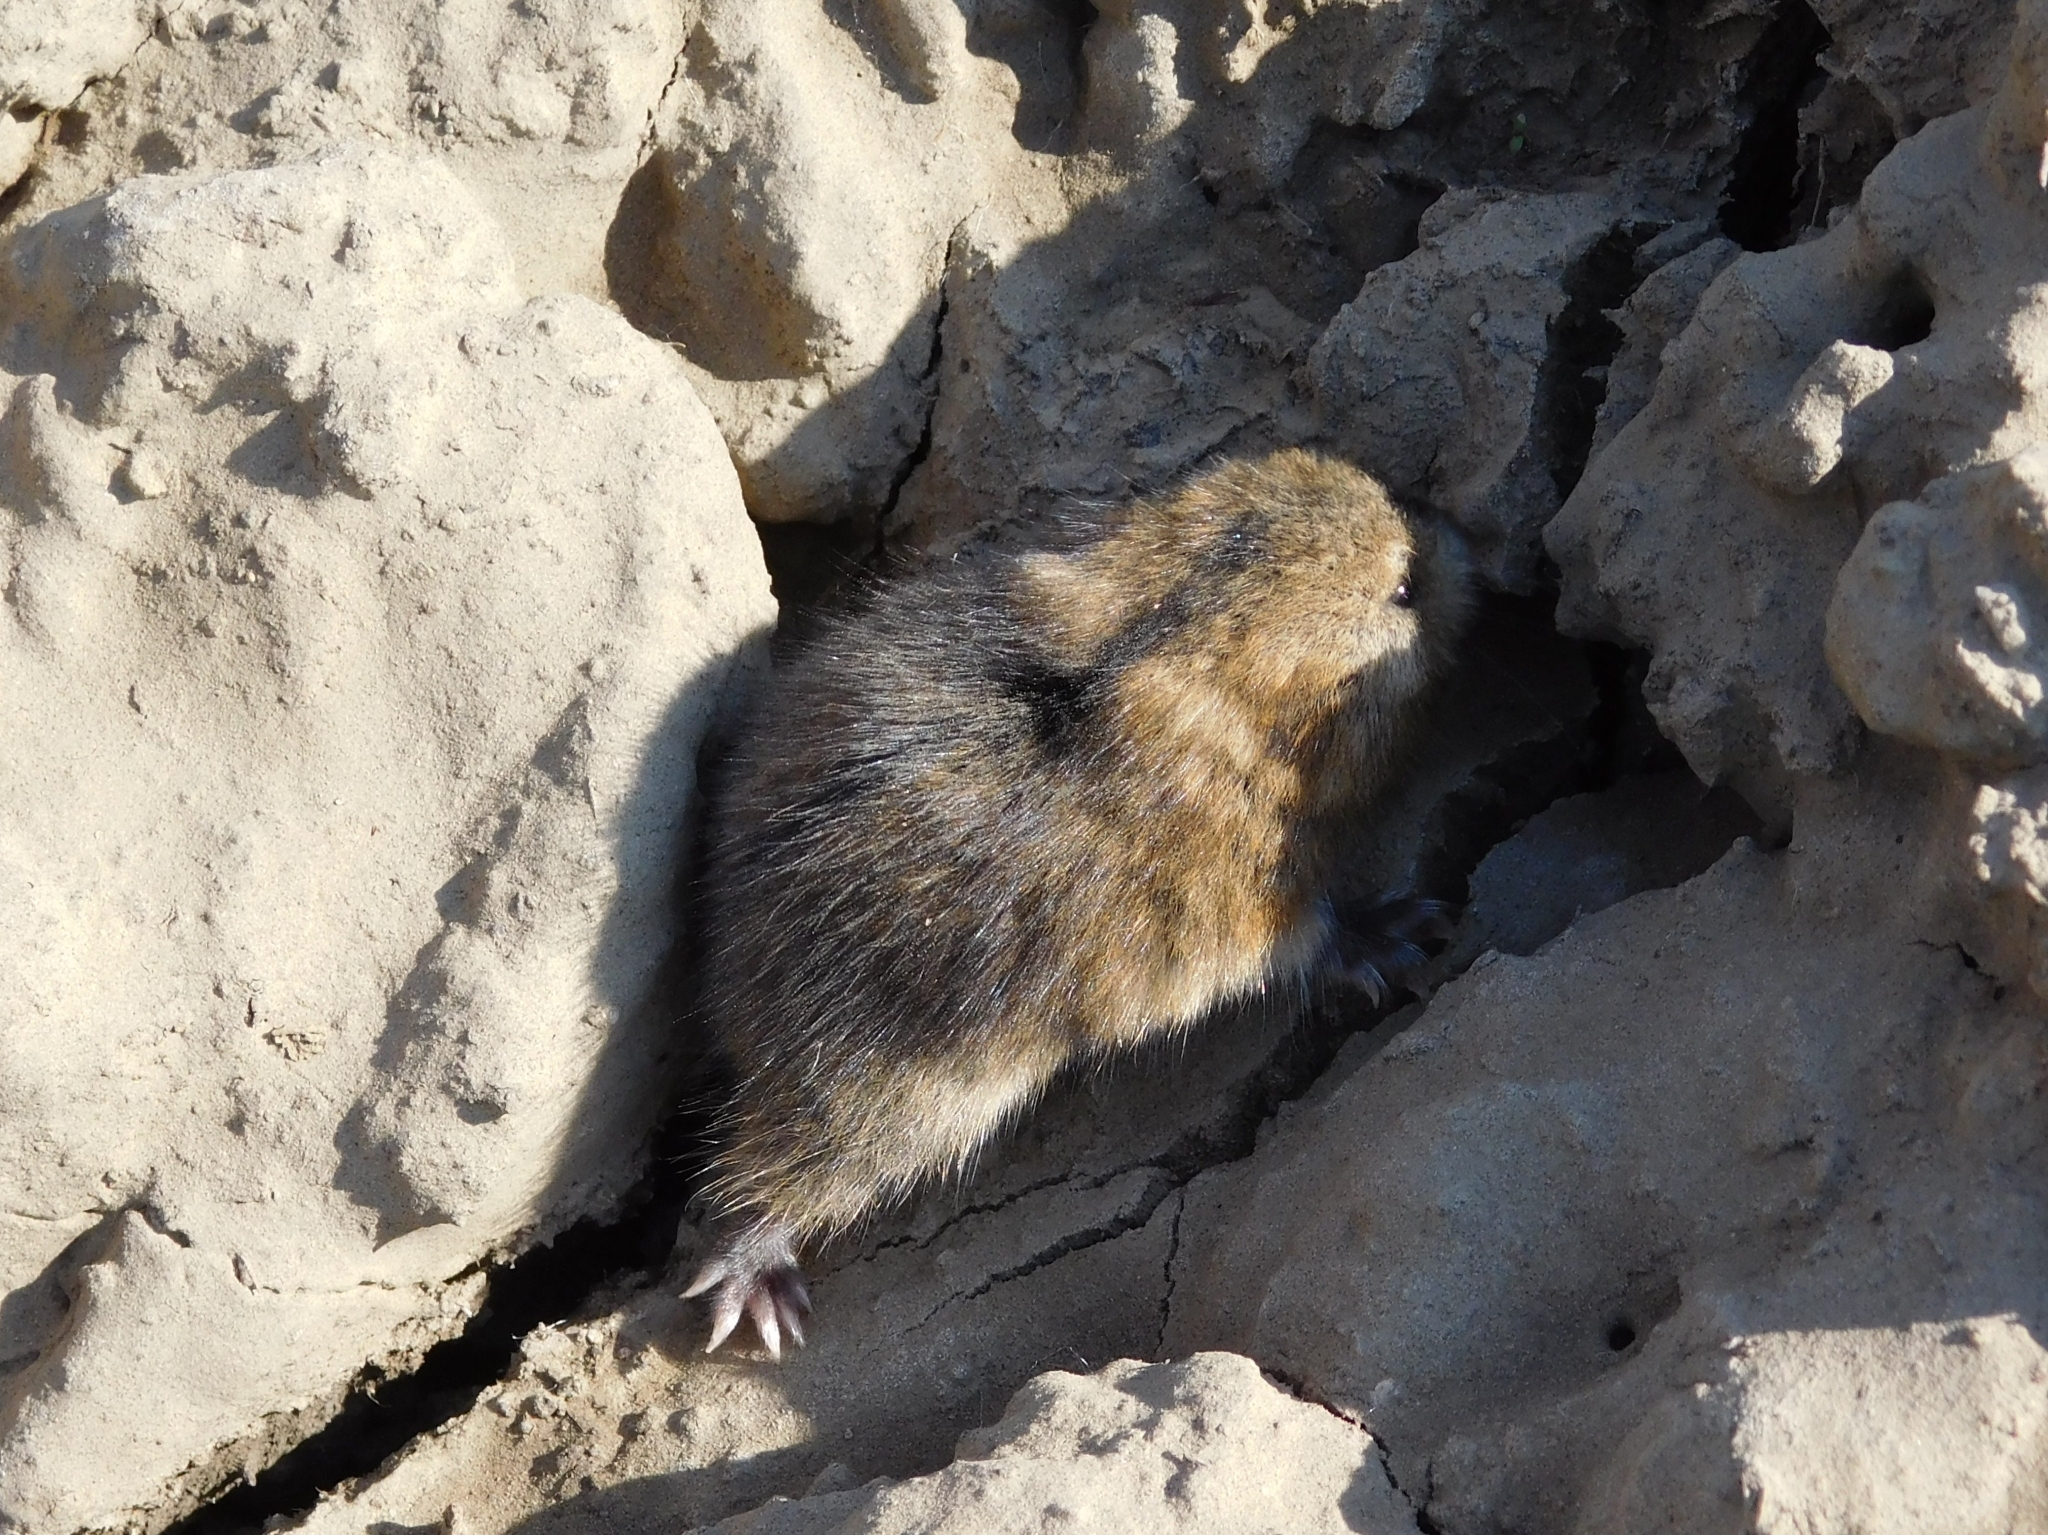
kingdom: Animalia
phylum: Chordata
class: Mammalia
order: Rodentia
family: Cricetidae
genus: Lemmus
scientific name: Lemmus sibiricus
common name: Siberian brown lemming
